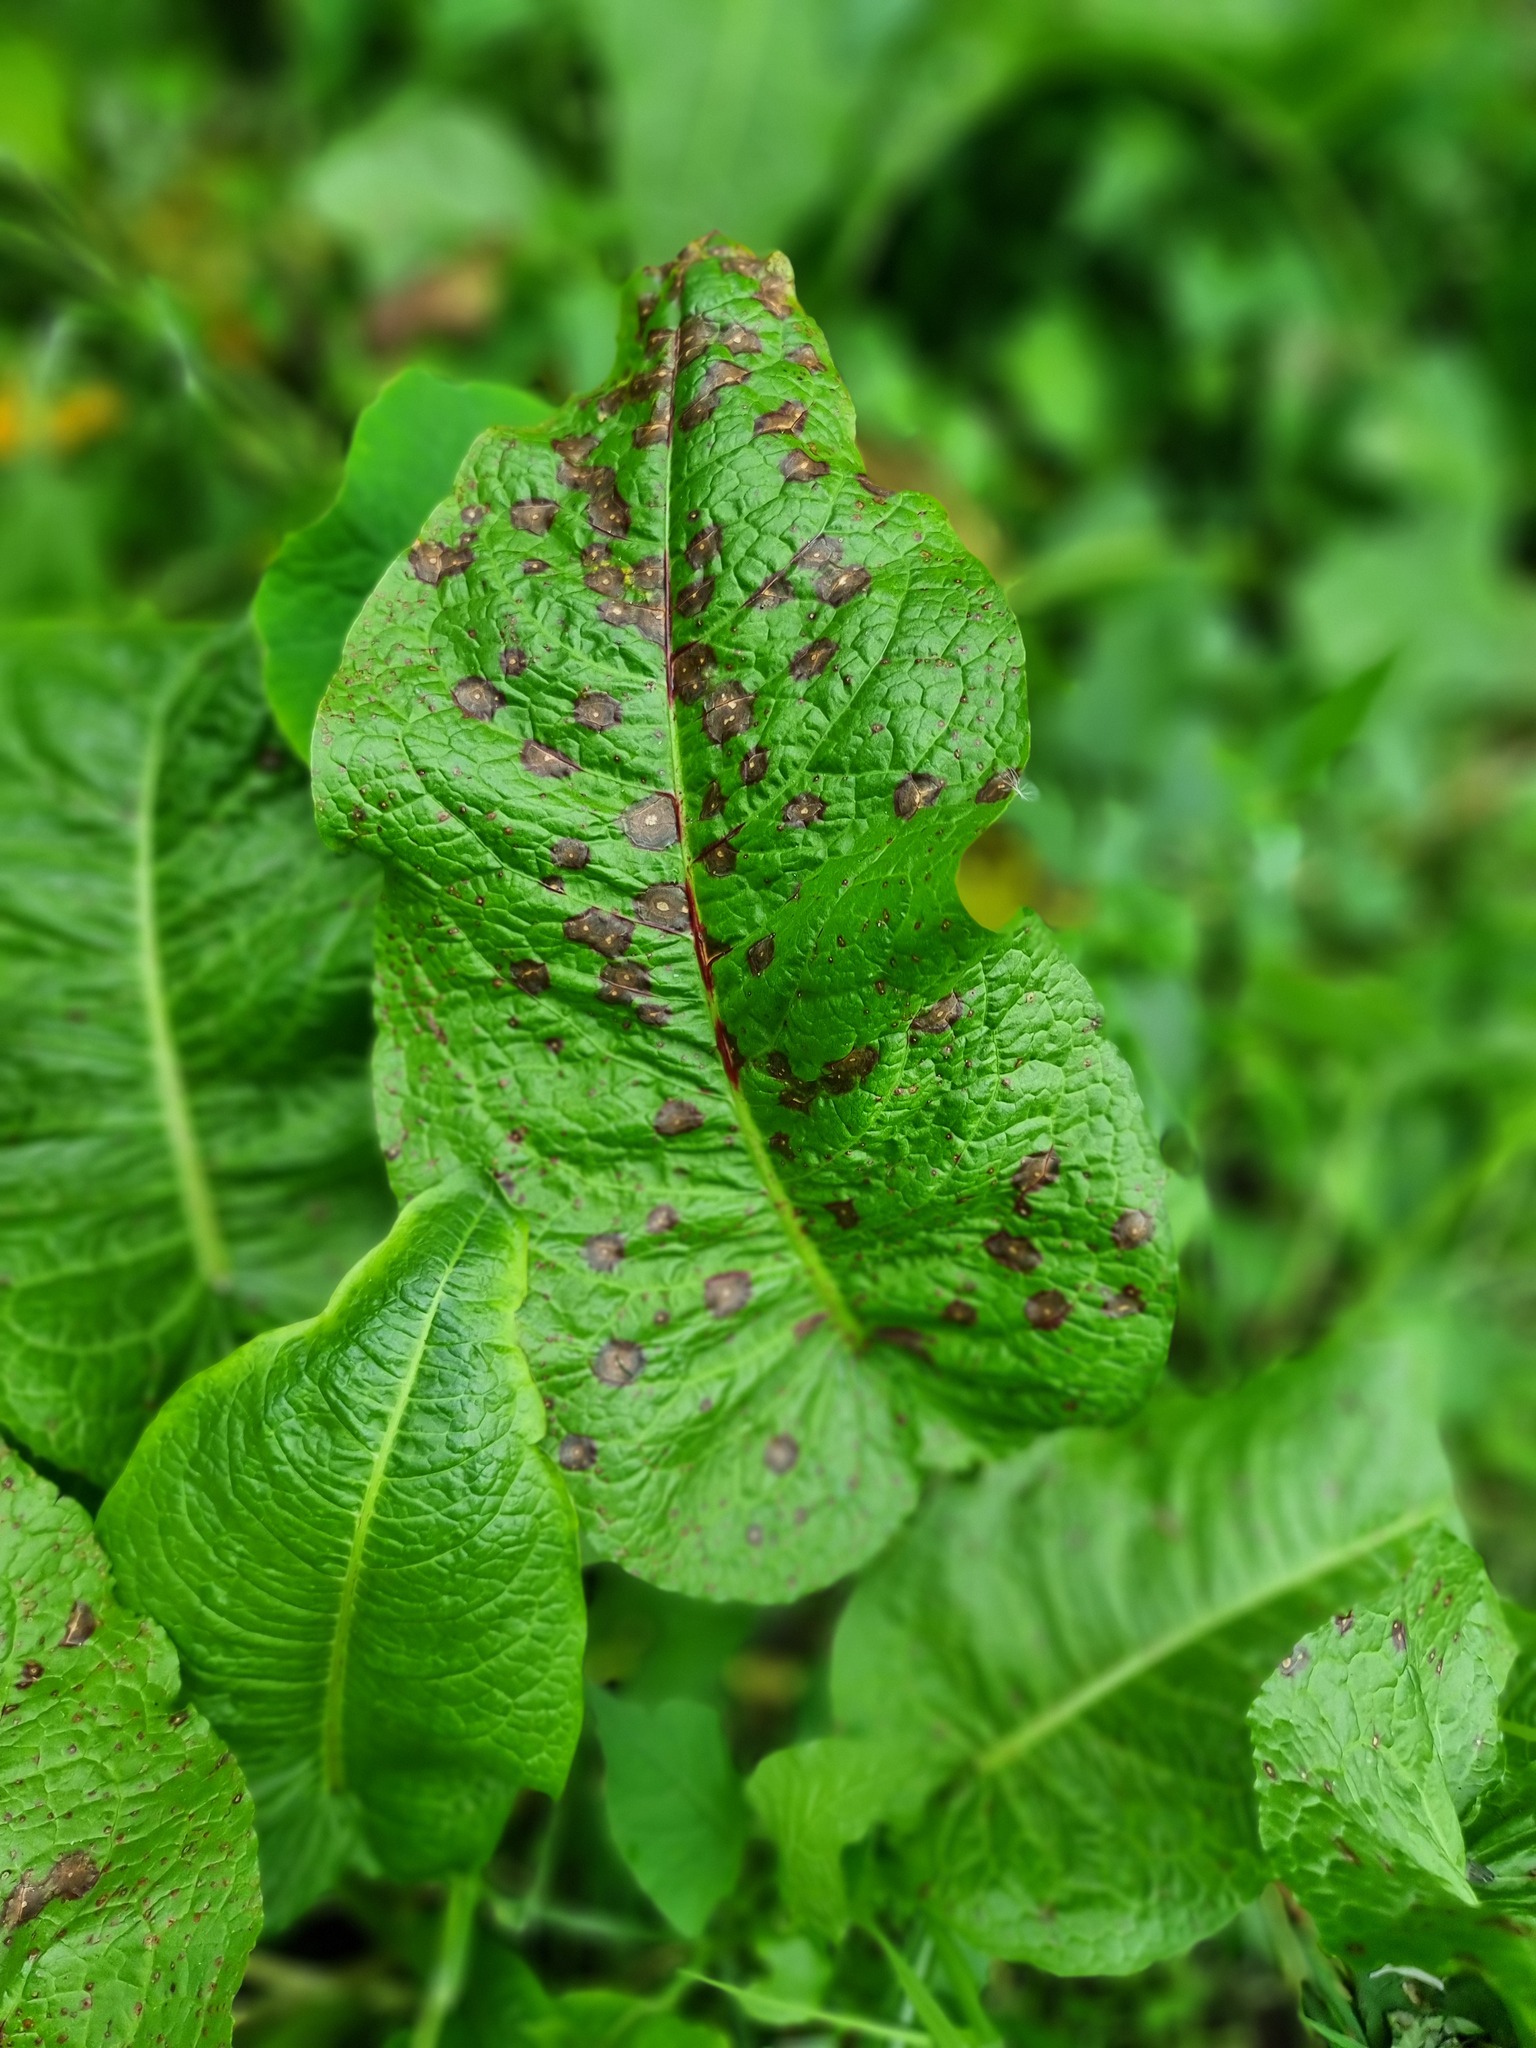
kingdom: Plantae
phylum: Tracheophyta
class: Magnoliopsida
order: Caryophyllales
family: Polygonaceae
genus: Rumex
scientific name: Rumex obtusifolius
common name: Bitter dock
